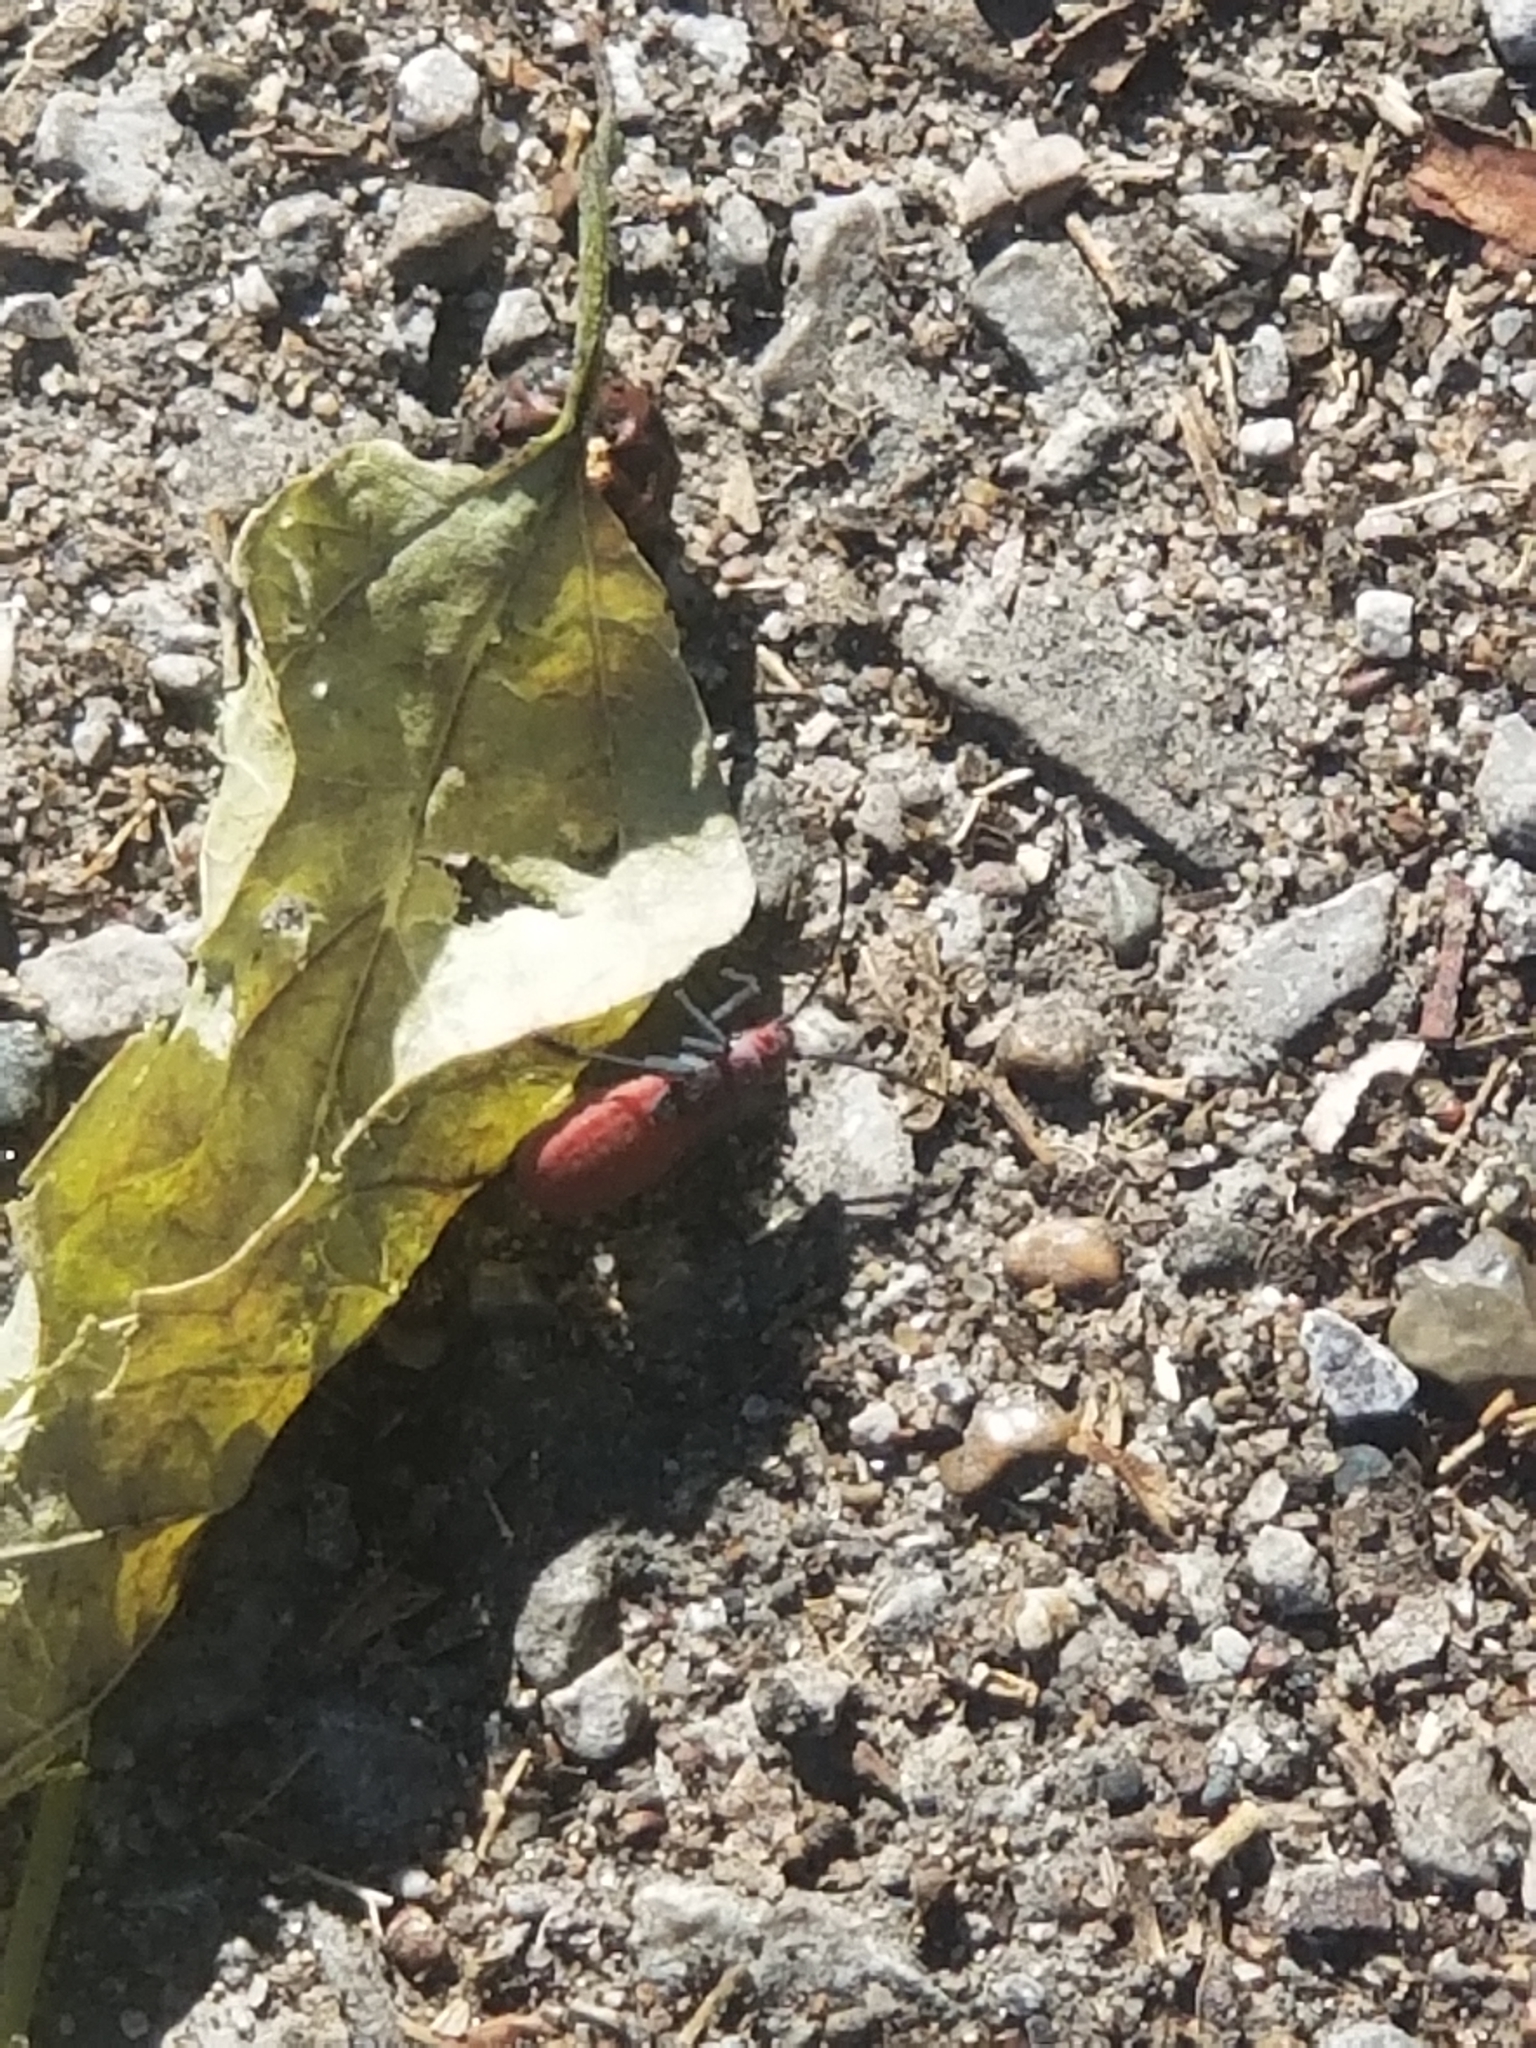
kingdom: Animalia
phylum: Arthropoda
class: Insecta
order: Hemiptera
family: Rhopalidae
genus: Jadera
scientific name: Jadera haematoloma
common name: Red-shouldered bug
